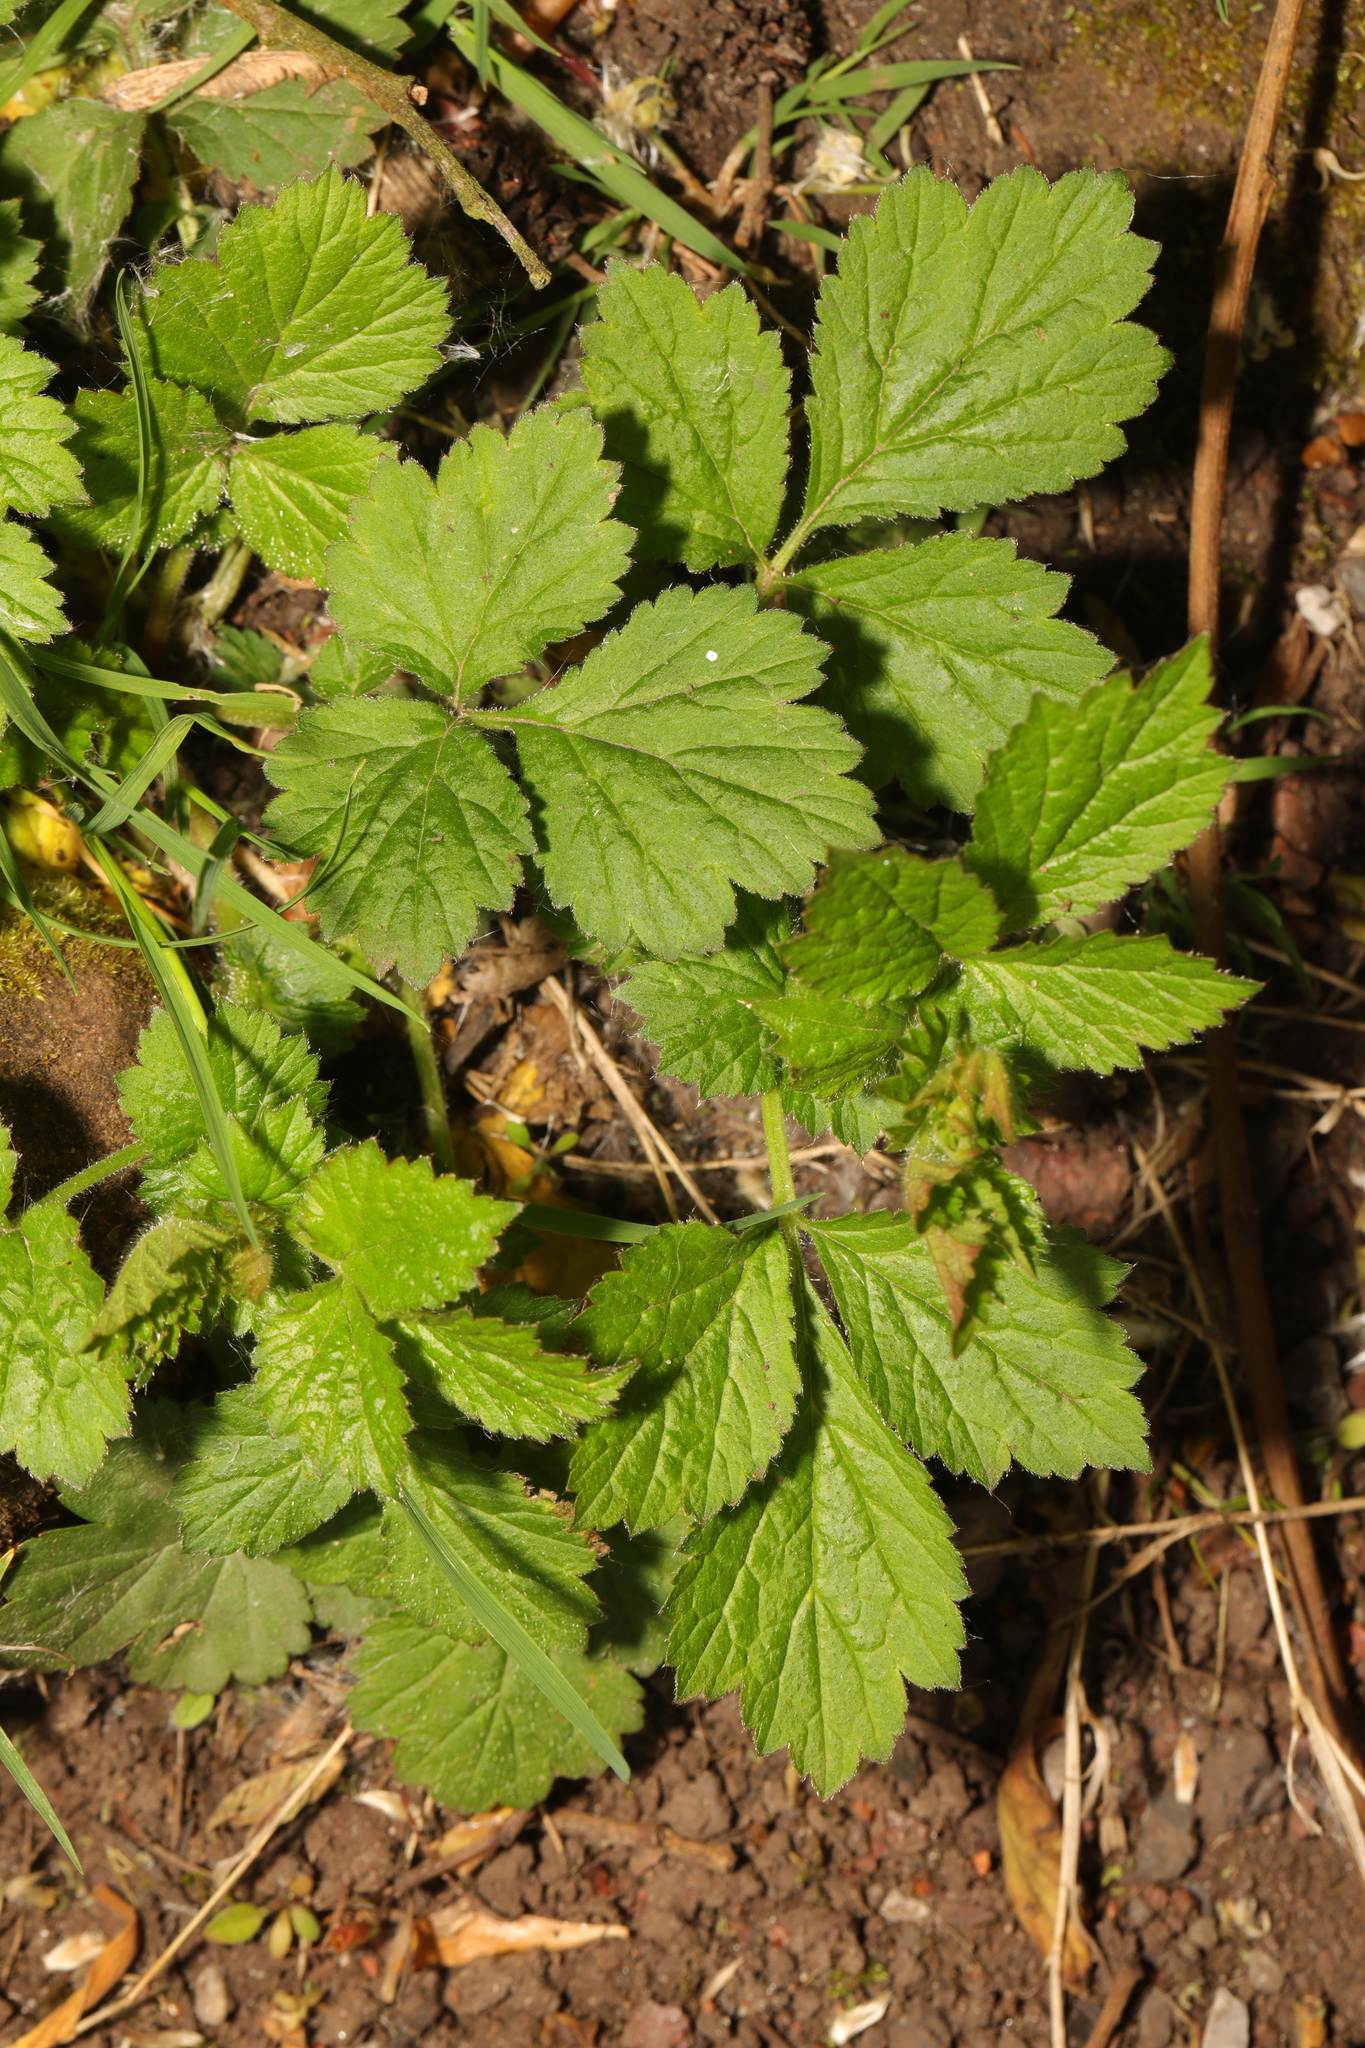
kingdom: Plantae
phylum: Tracheophyta
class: Magnoliopsida
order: Rosales
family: Rosaceae
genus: Geum
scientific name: Geum urbanum
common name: Wood avens
